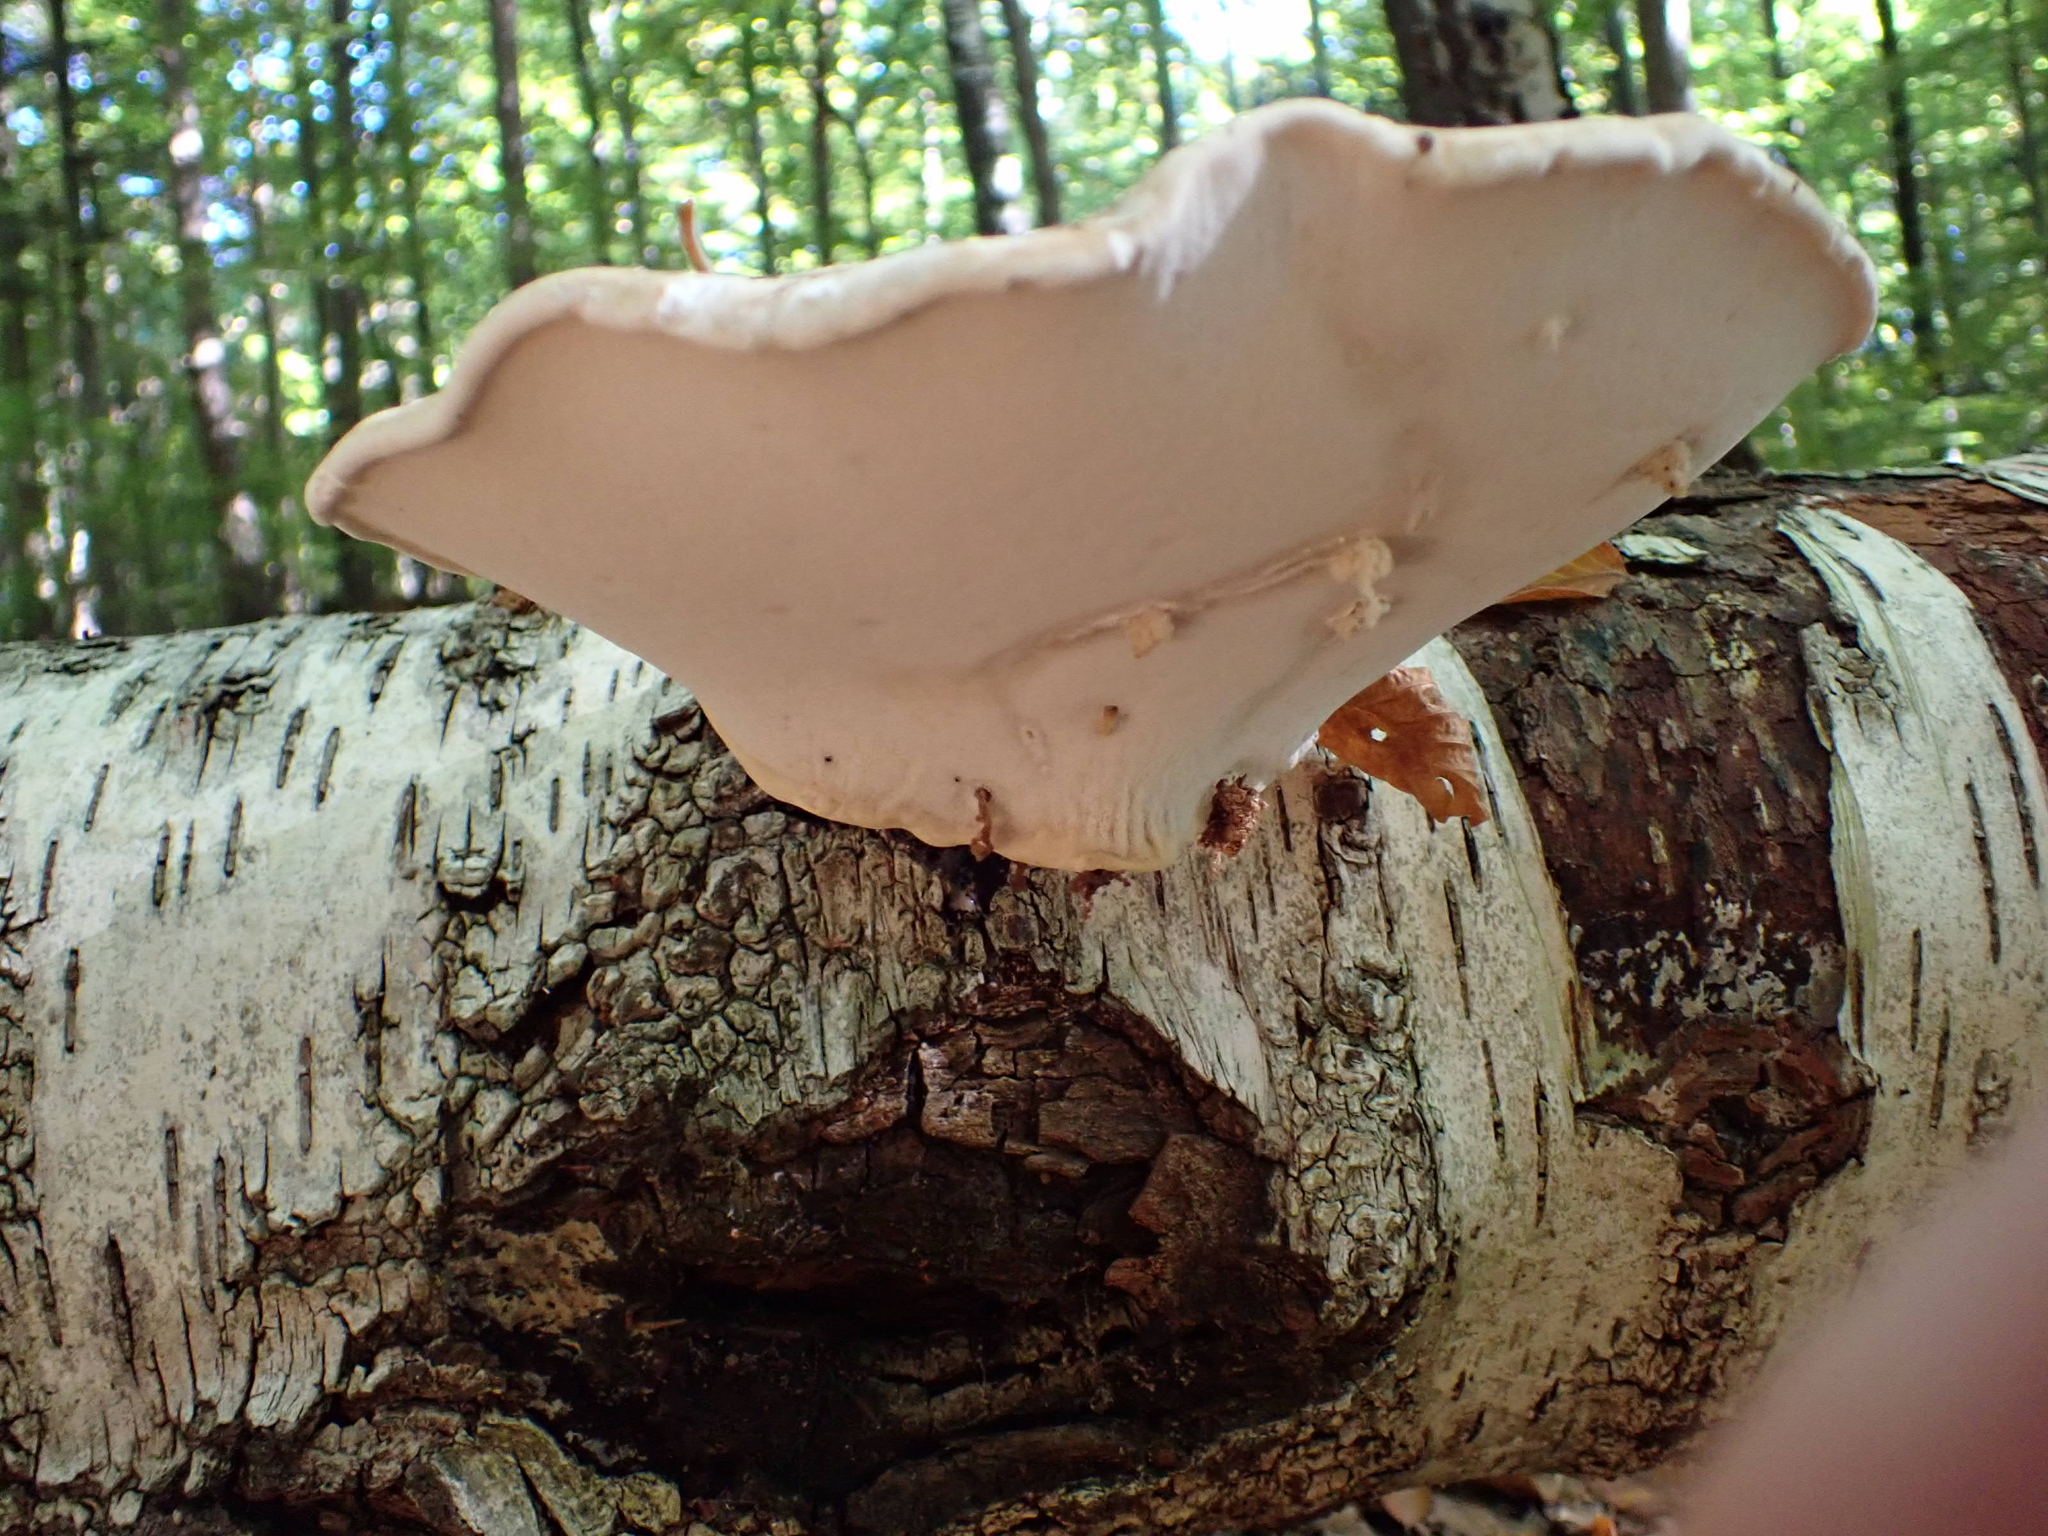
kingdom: Fungi
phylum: Basidiomycota
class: Agaricomycetes
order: Polyporales
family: Fomitopsidaceae
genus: Fomitopsis
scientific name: Fomitopsis betulina
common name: Birch polypore
